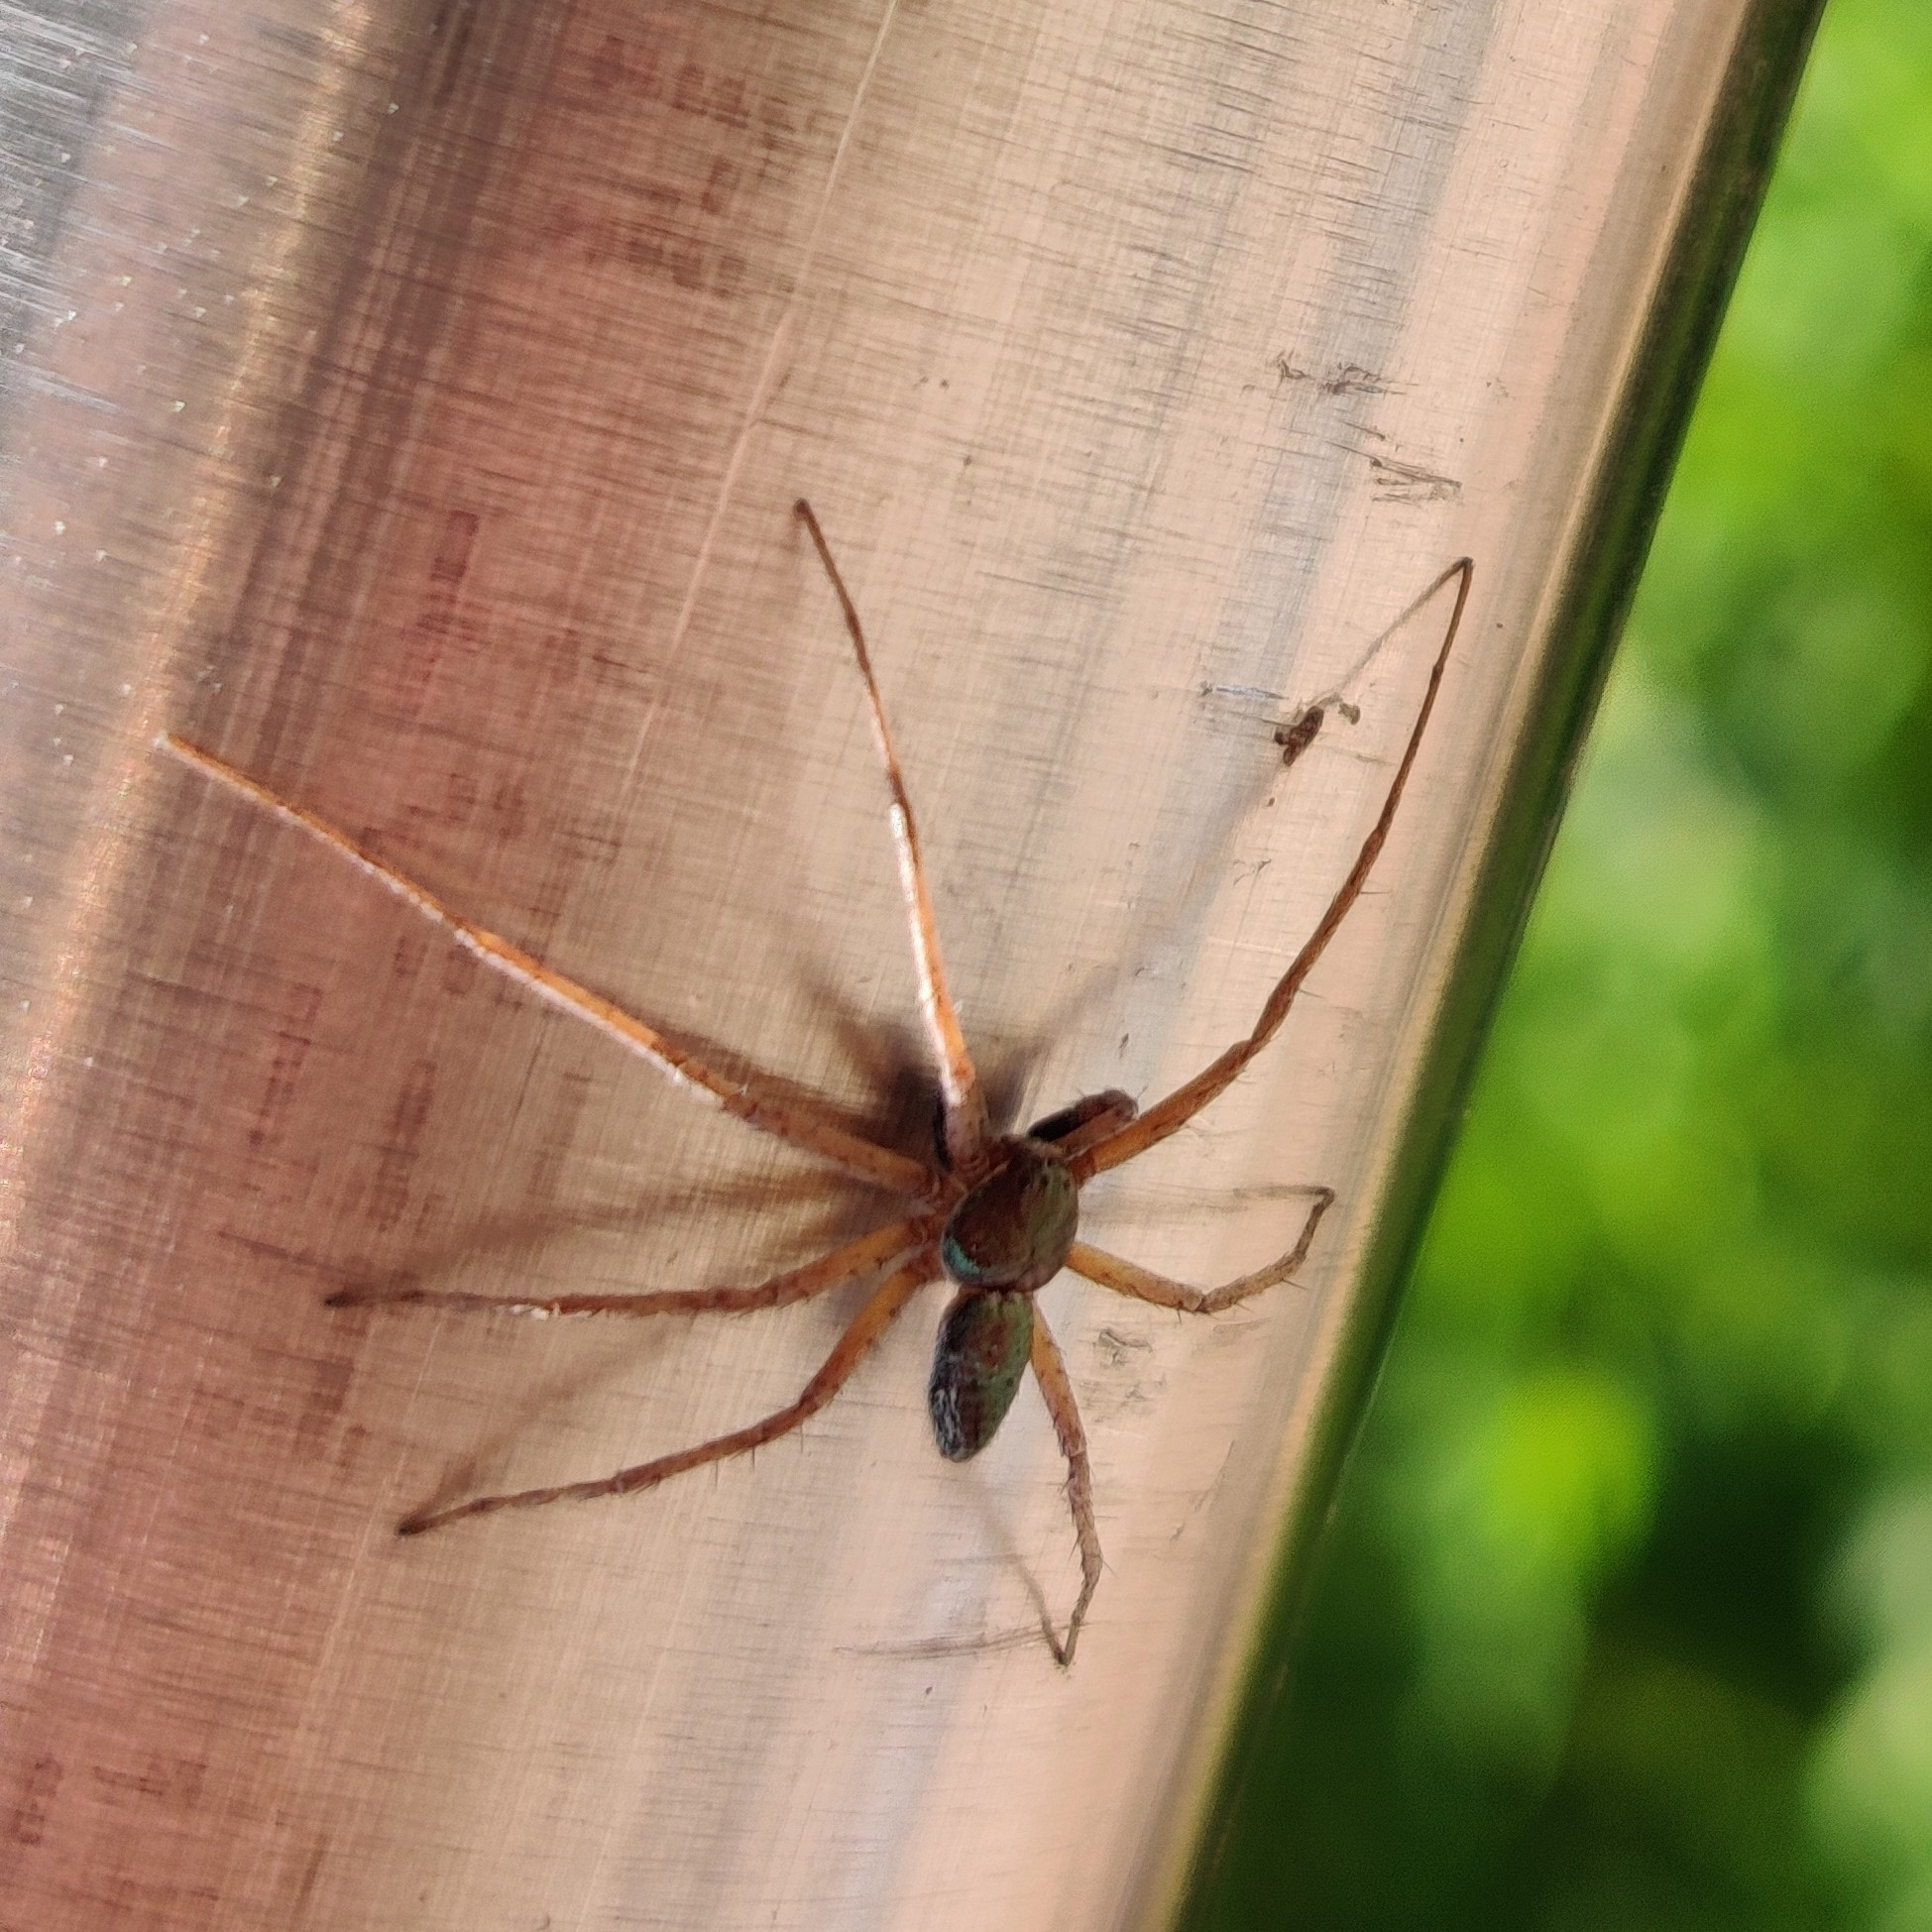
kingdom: Animalia
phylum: Arthropoda
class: Arachnida
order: Araneae
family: Philodromidae
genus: Philodromus
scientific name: Philodromus
